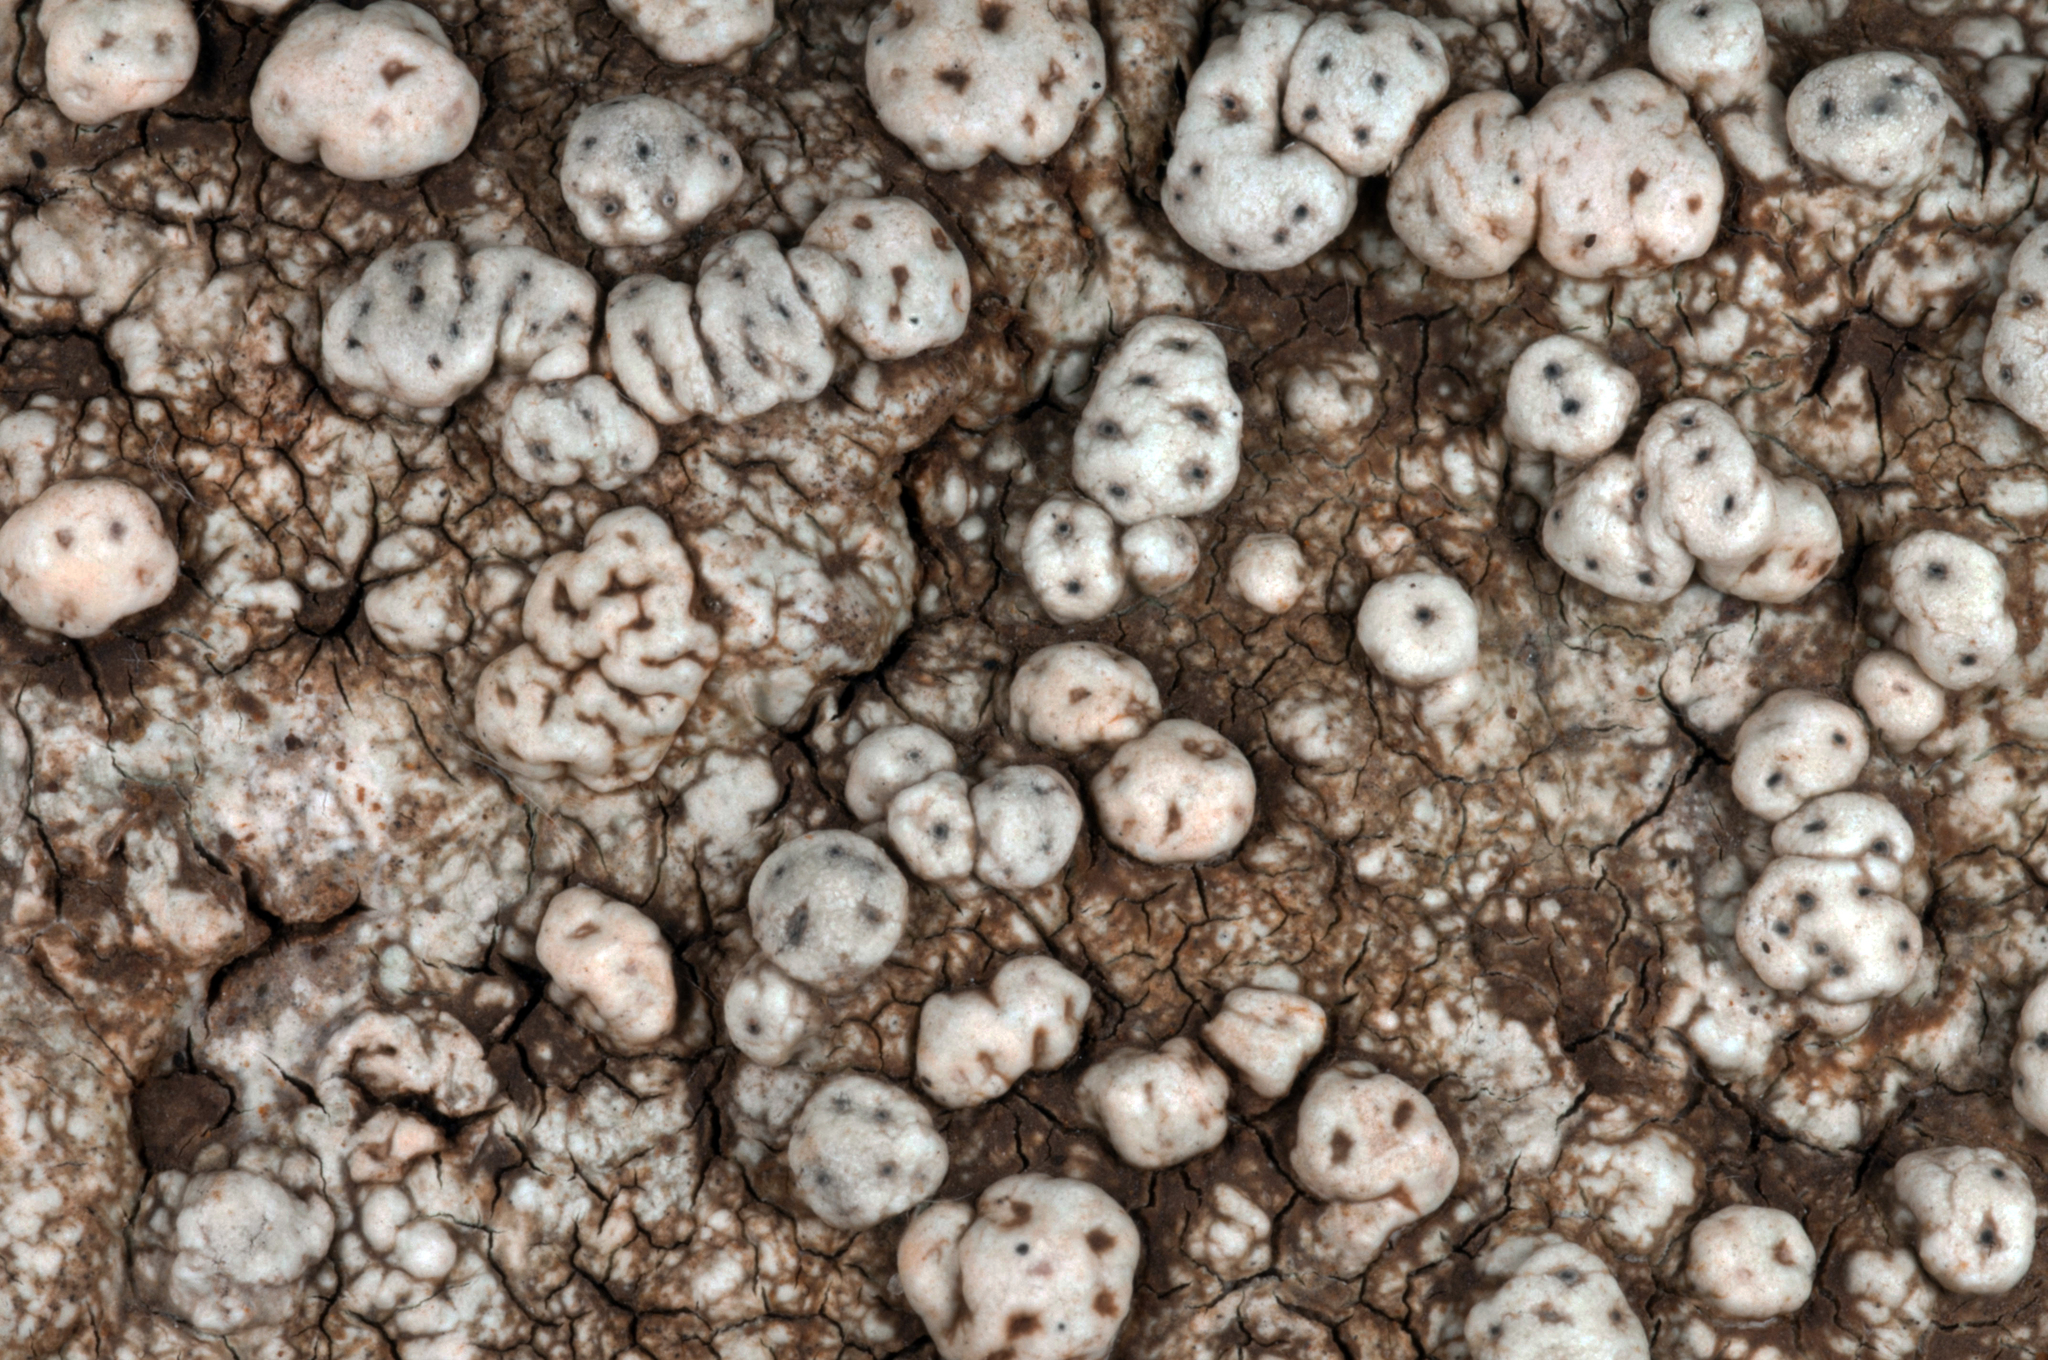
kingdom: Fungi
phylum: Ascomycota
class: Lecanoromycetes
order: Pertusariales
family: Pertusariaceae
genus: Pertusaria
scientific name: Pertusaria
